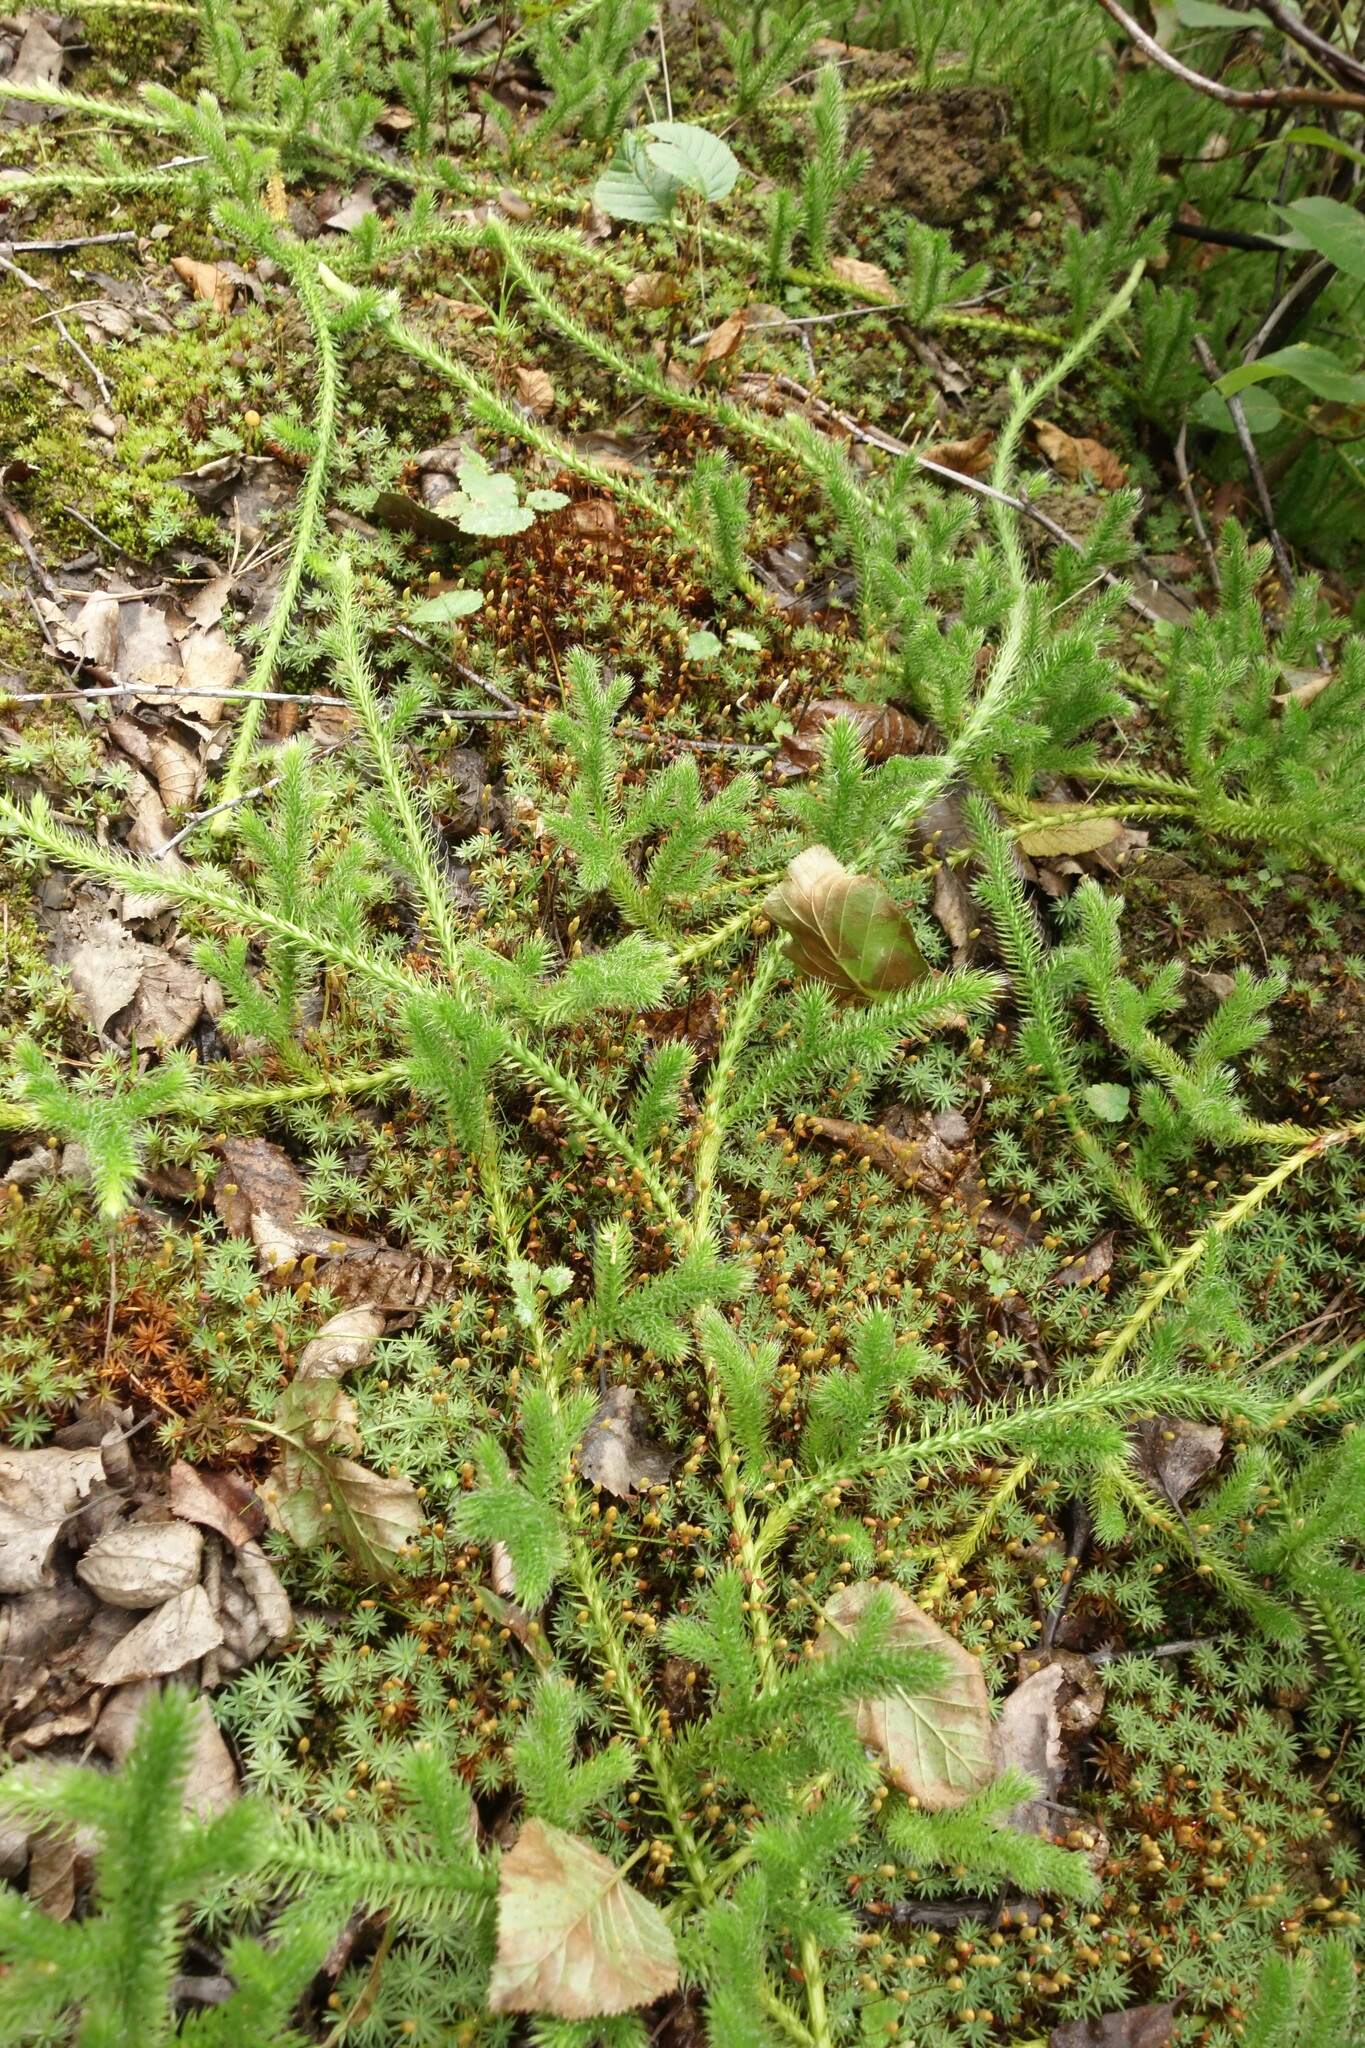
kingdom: Plantae
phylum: Tracheophyta
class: Lycopodiopsida
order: Lycopodiales
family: Lycopodiaceae
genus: Lycopodium
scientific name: Lycopodium clavatum
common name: Stag's-horn clubmoss
